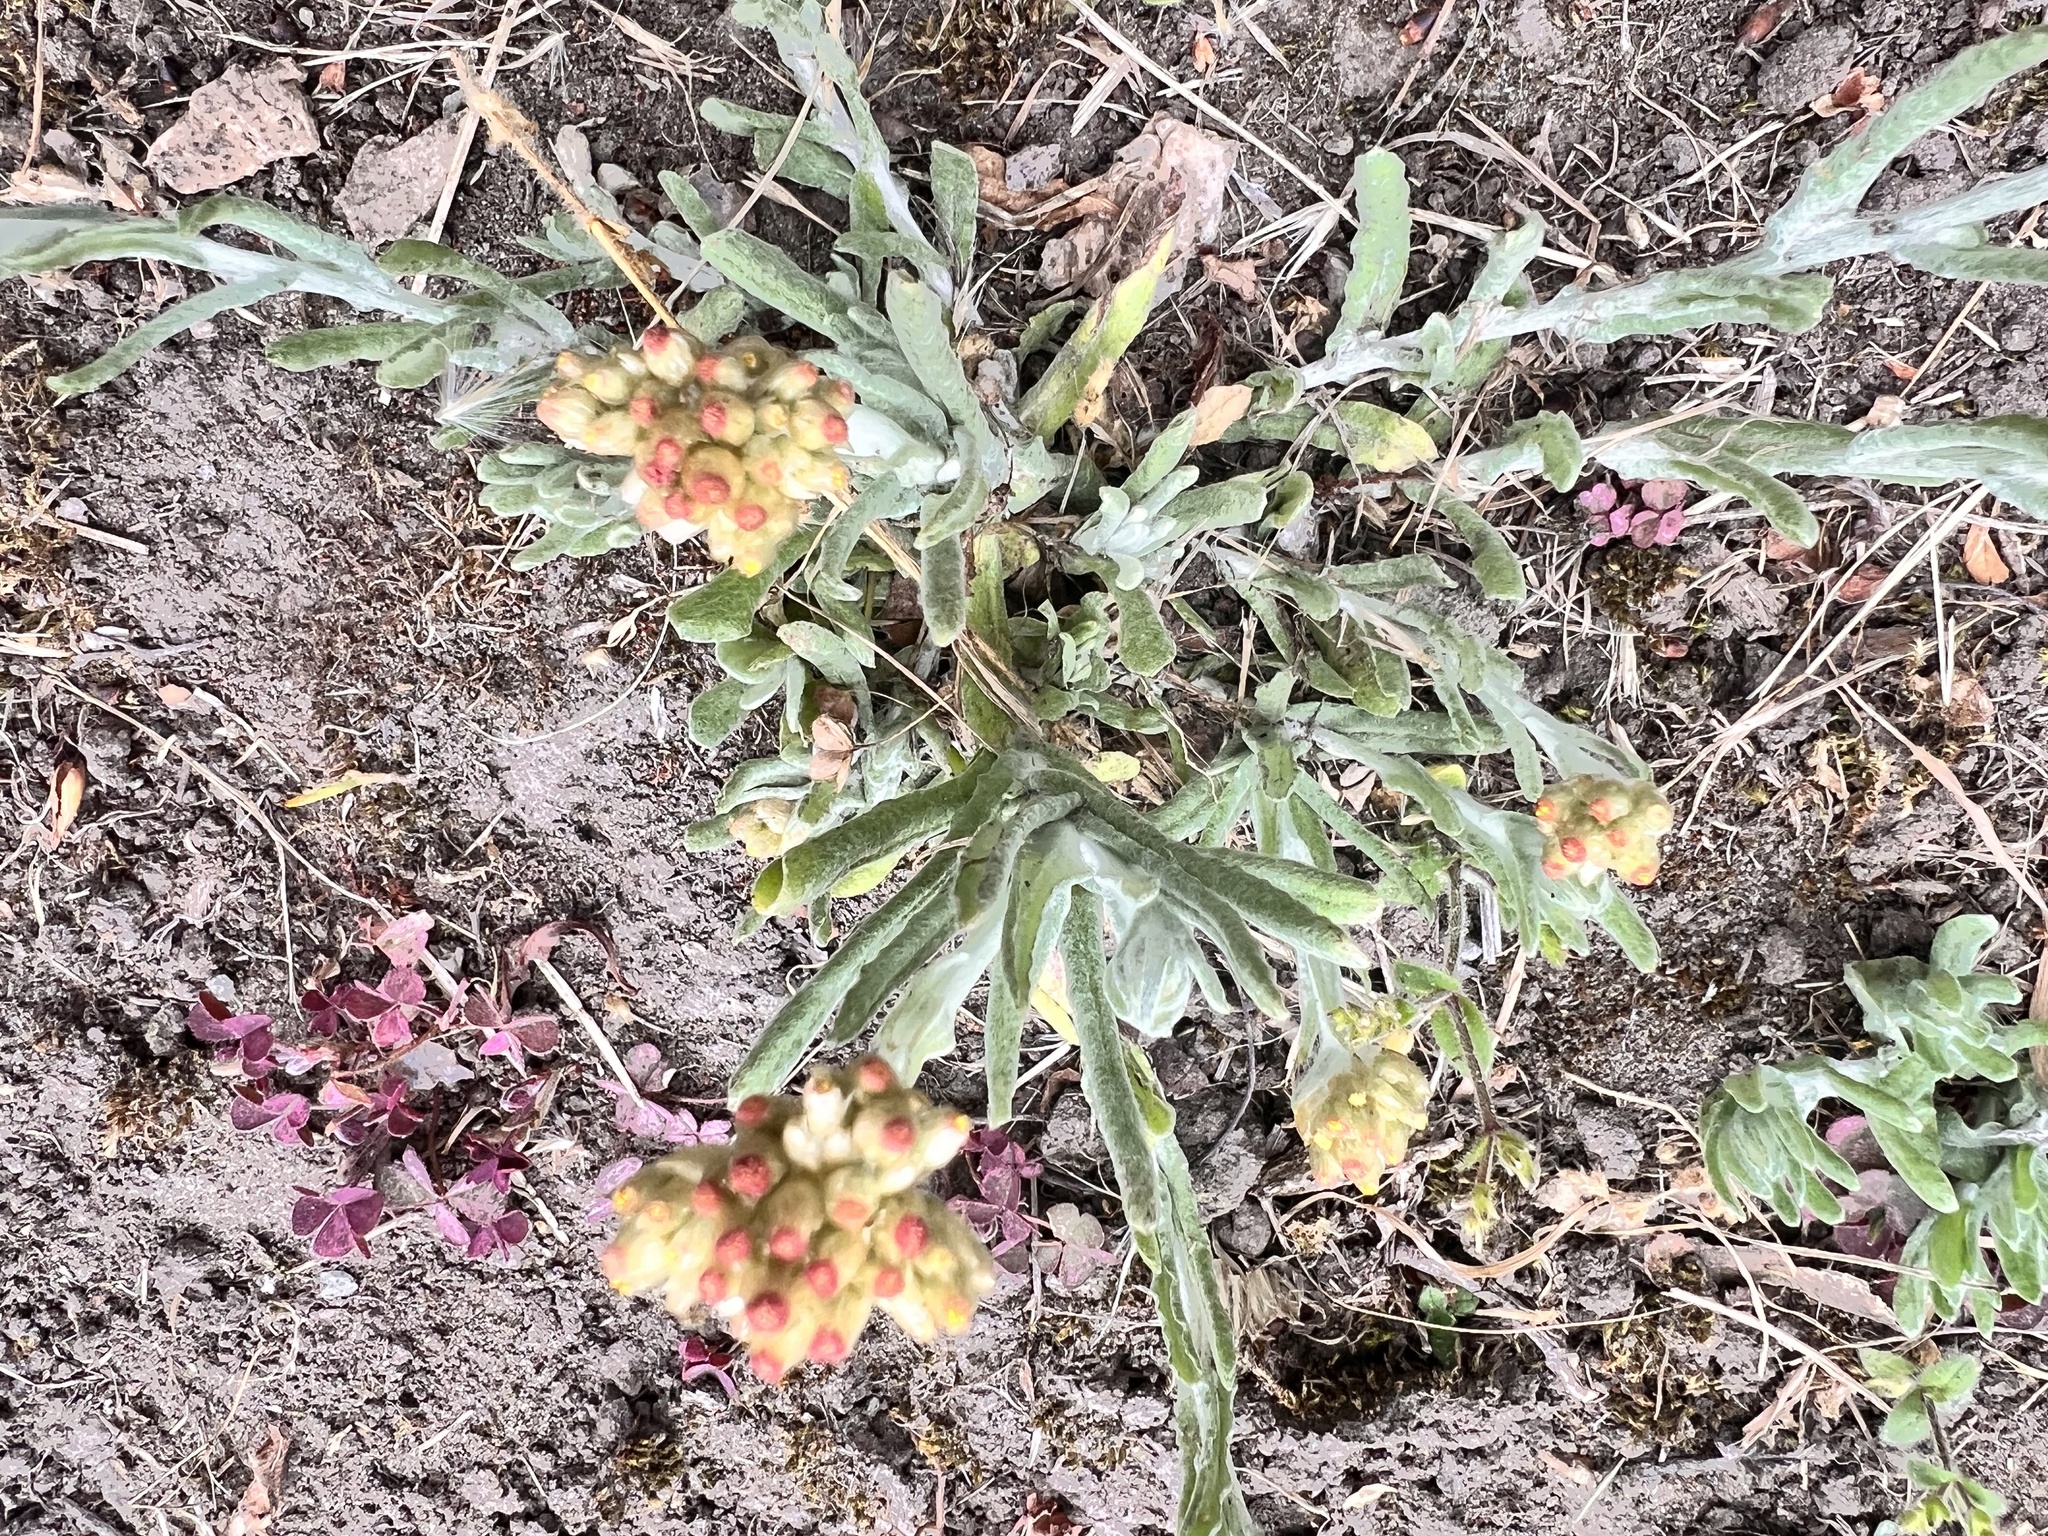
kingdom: Plantae
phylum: Tracheophyta
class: Magnoliopsida
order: Asterales
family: Asteraceae
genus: Helichrysum
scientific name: Helichrysum luteoalbum
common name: Daisy
